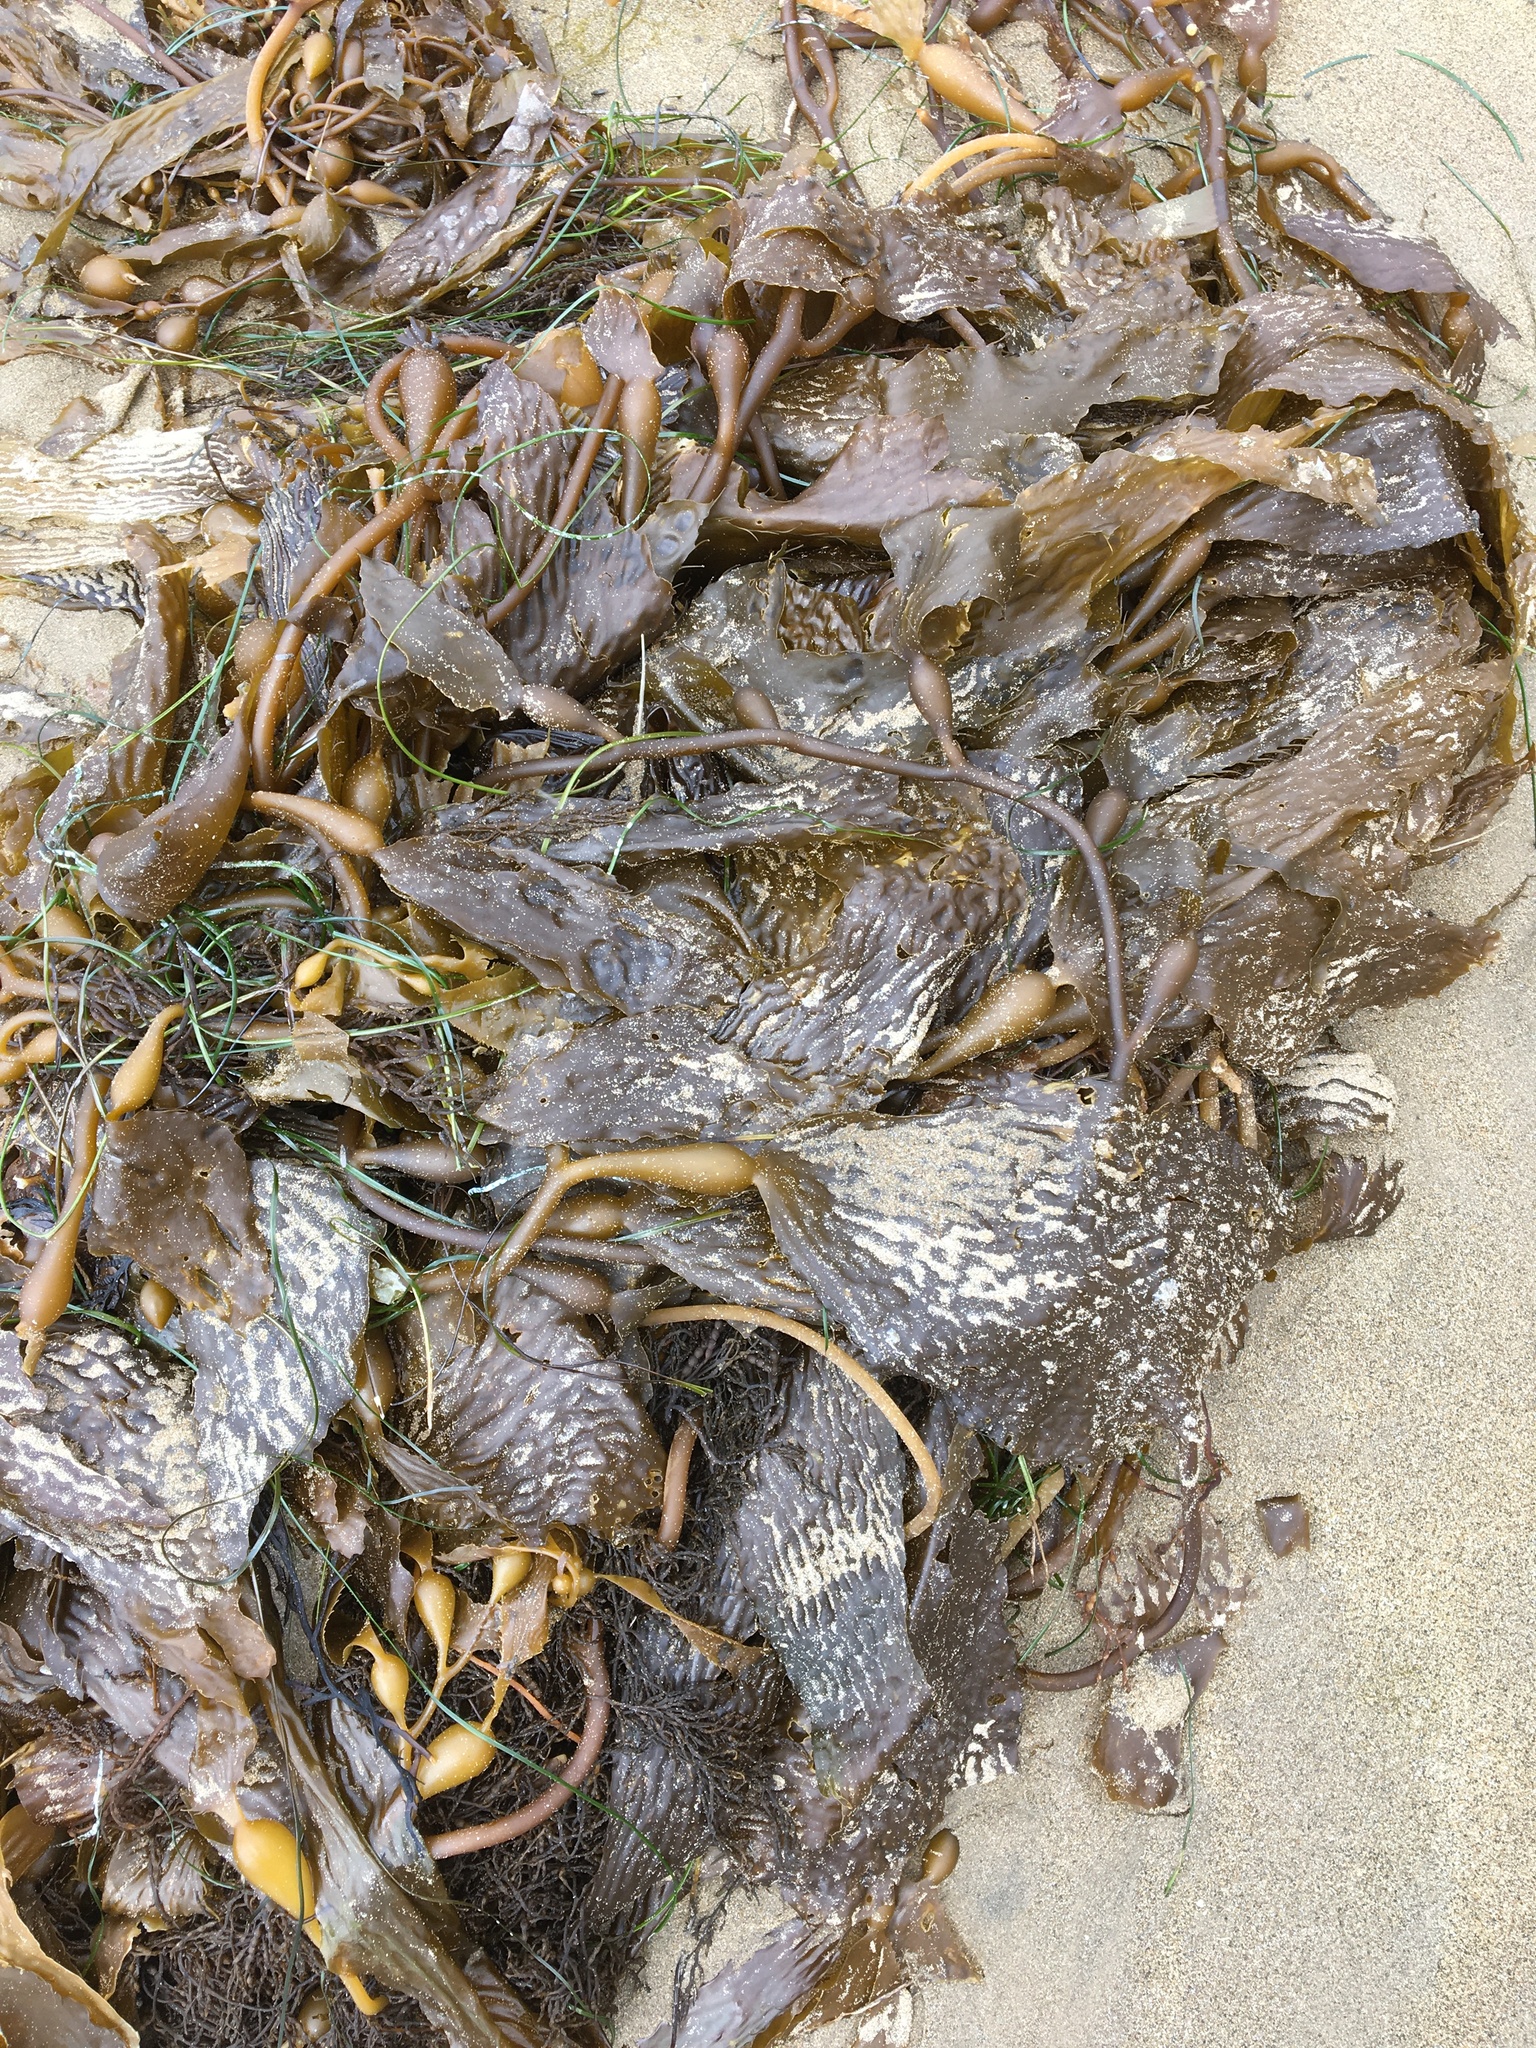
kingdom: Chromista
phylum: Ochrophyta
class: Phaeophyceae
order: Laminariales
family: Laminariaceae
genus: Macrocystis
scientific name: Macrocystis pyrifera
